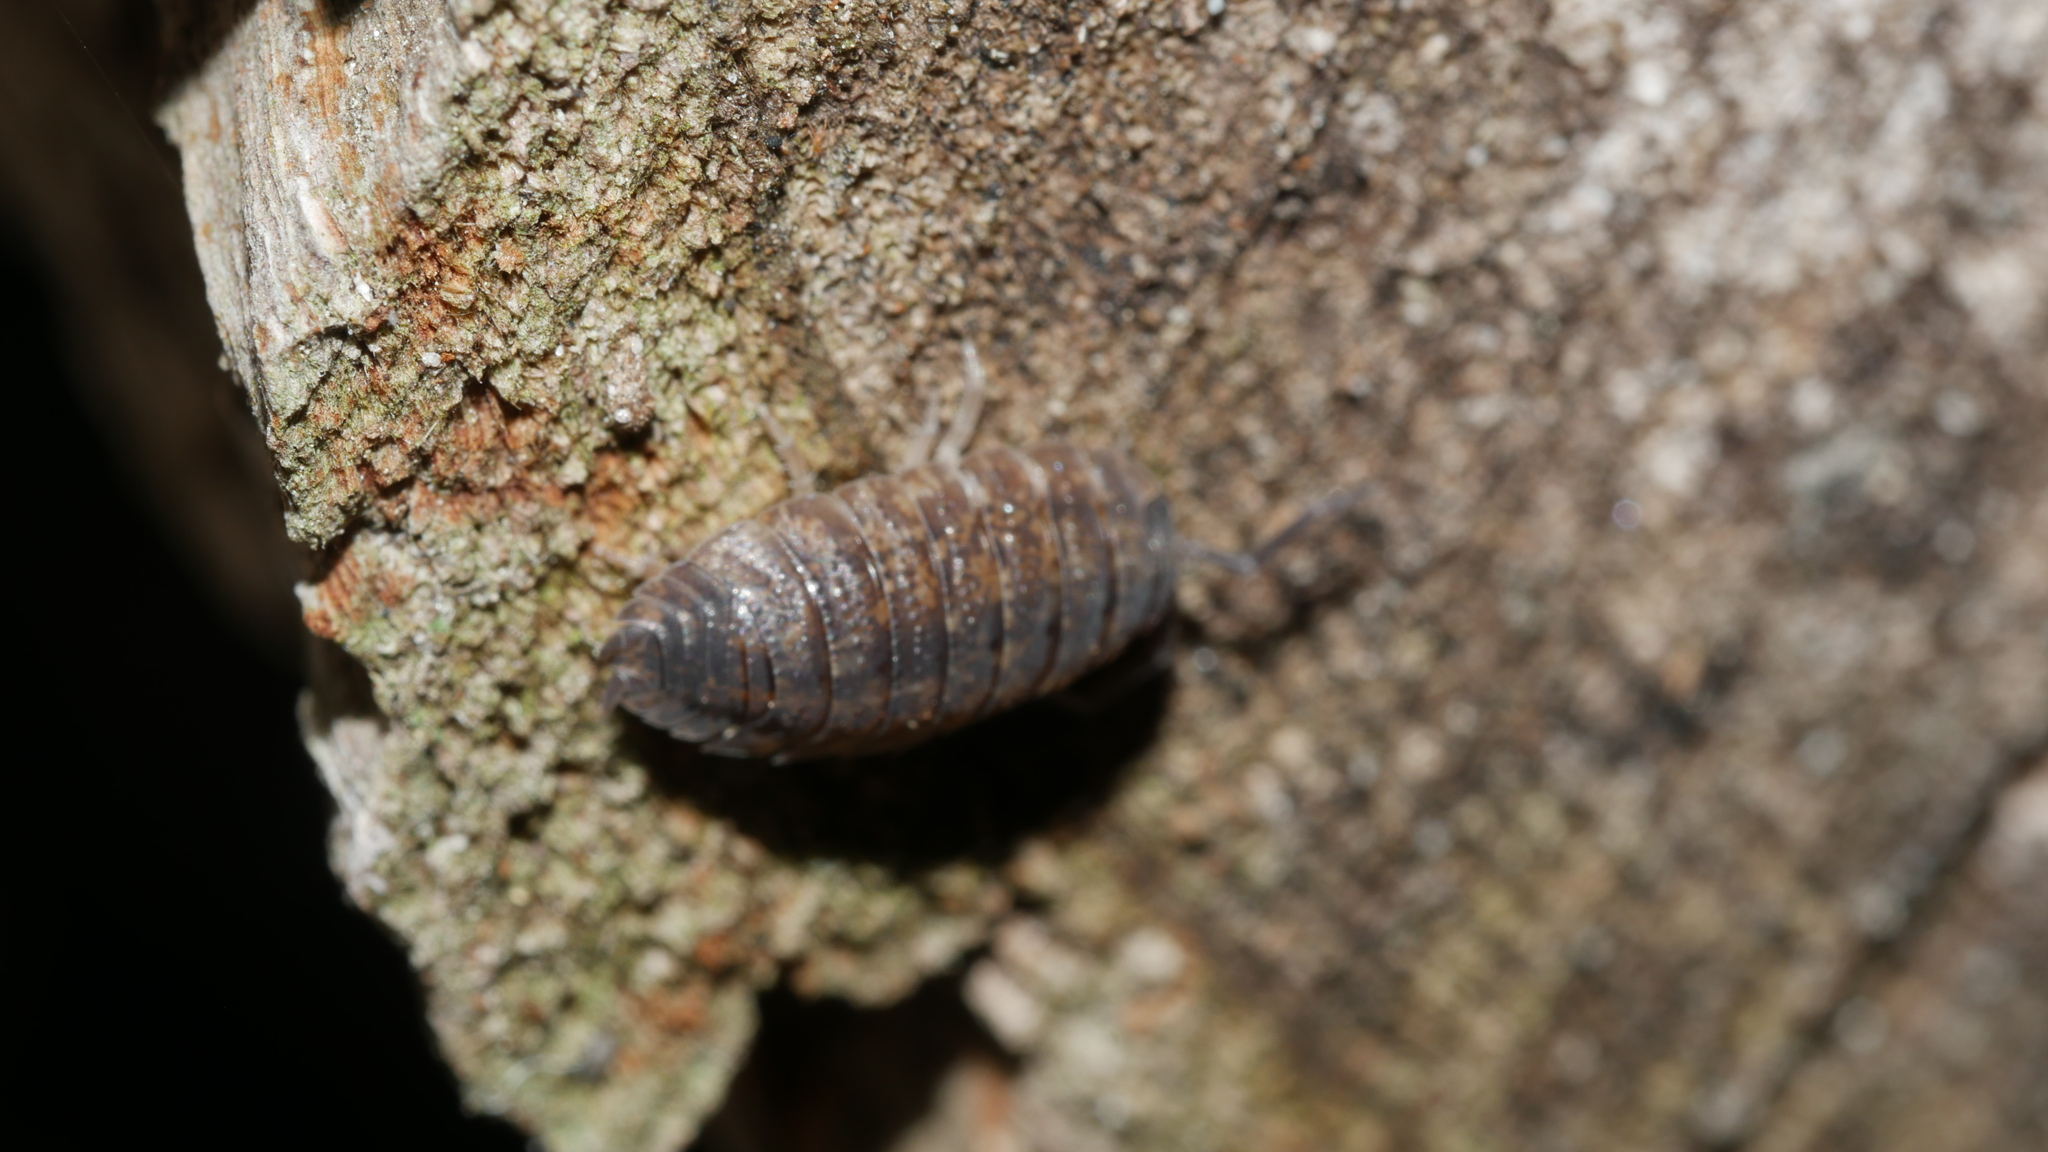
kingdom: Animalia
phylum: Arthropoda
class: Malacostraca
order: Isopoda
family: Porcellionidae
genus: Porcellio
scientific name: Porcellio scaber
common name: Common rough woodlouse
